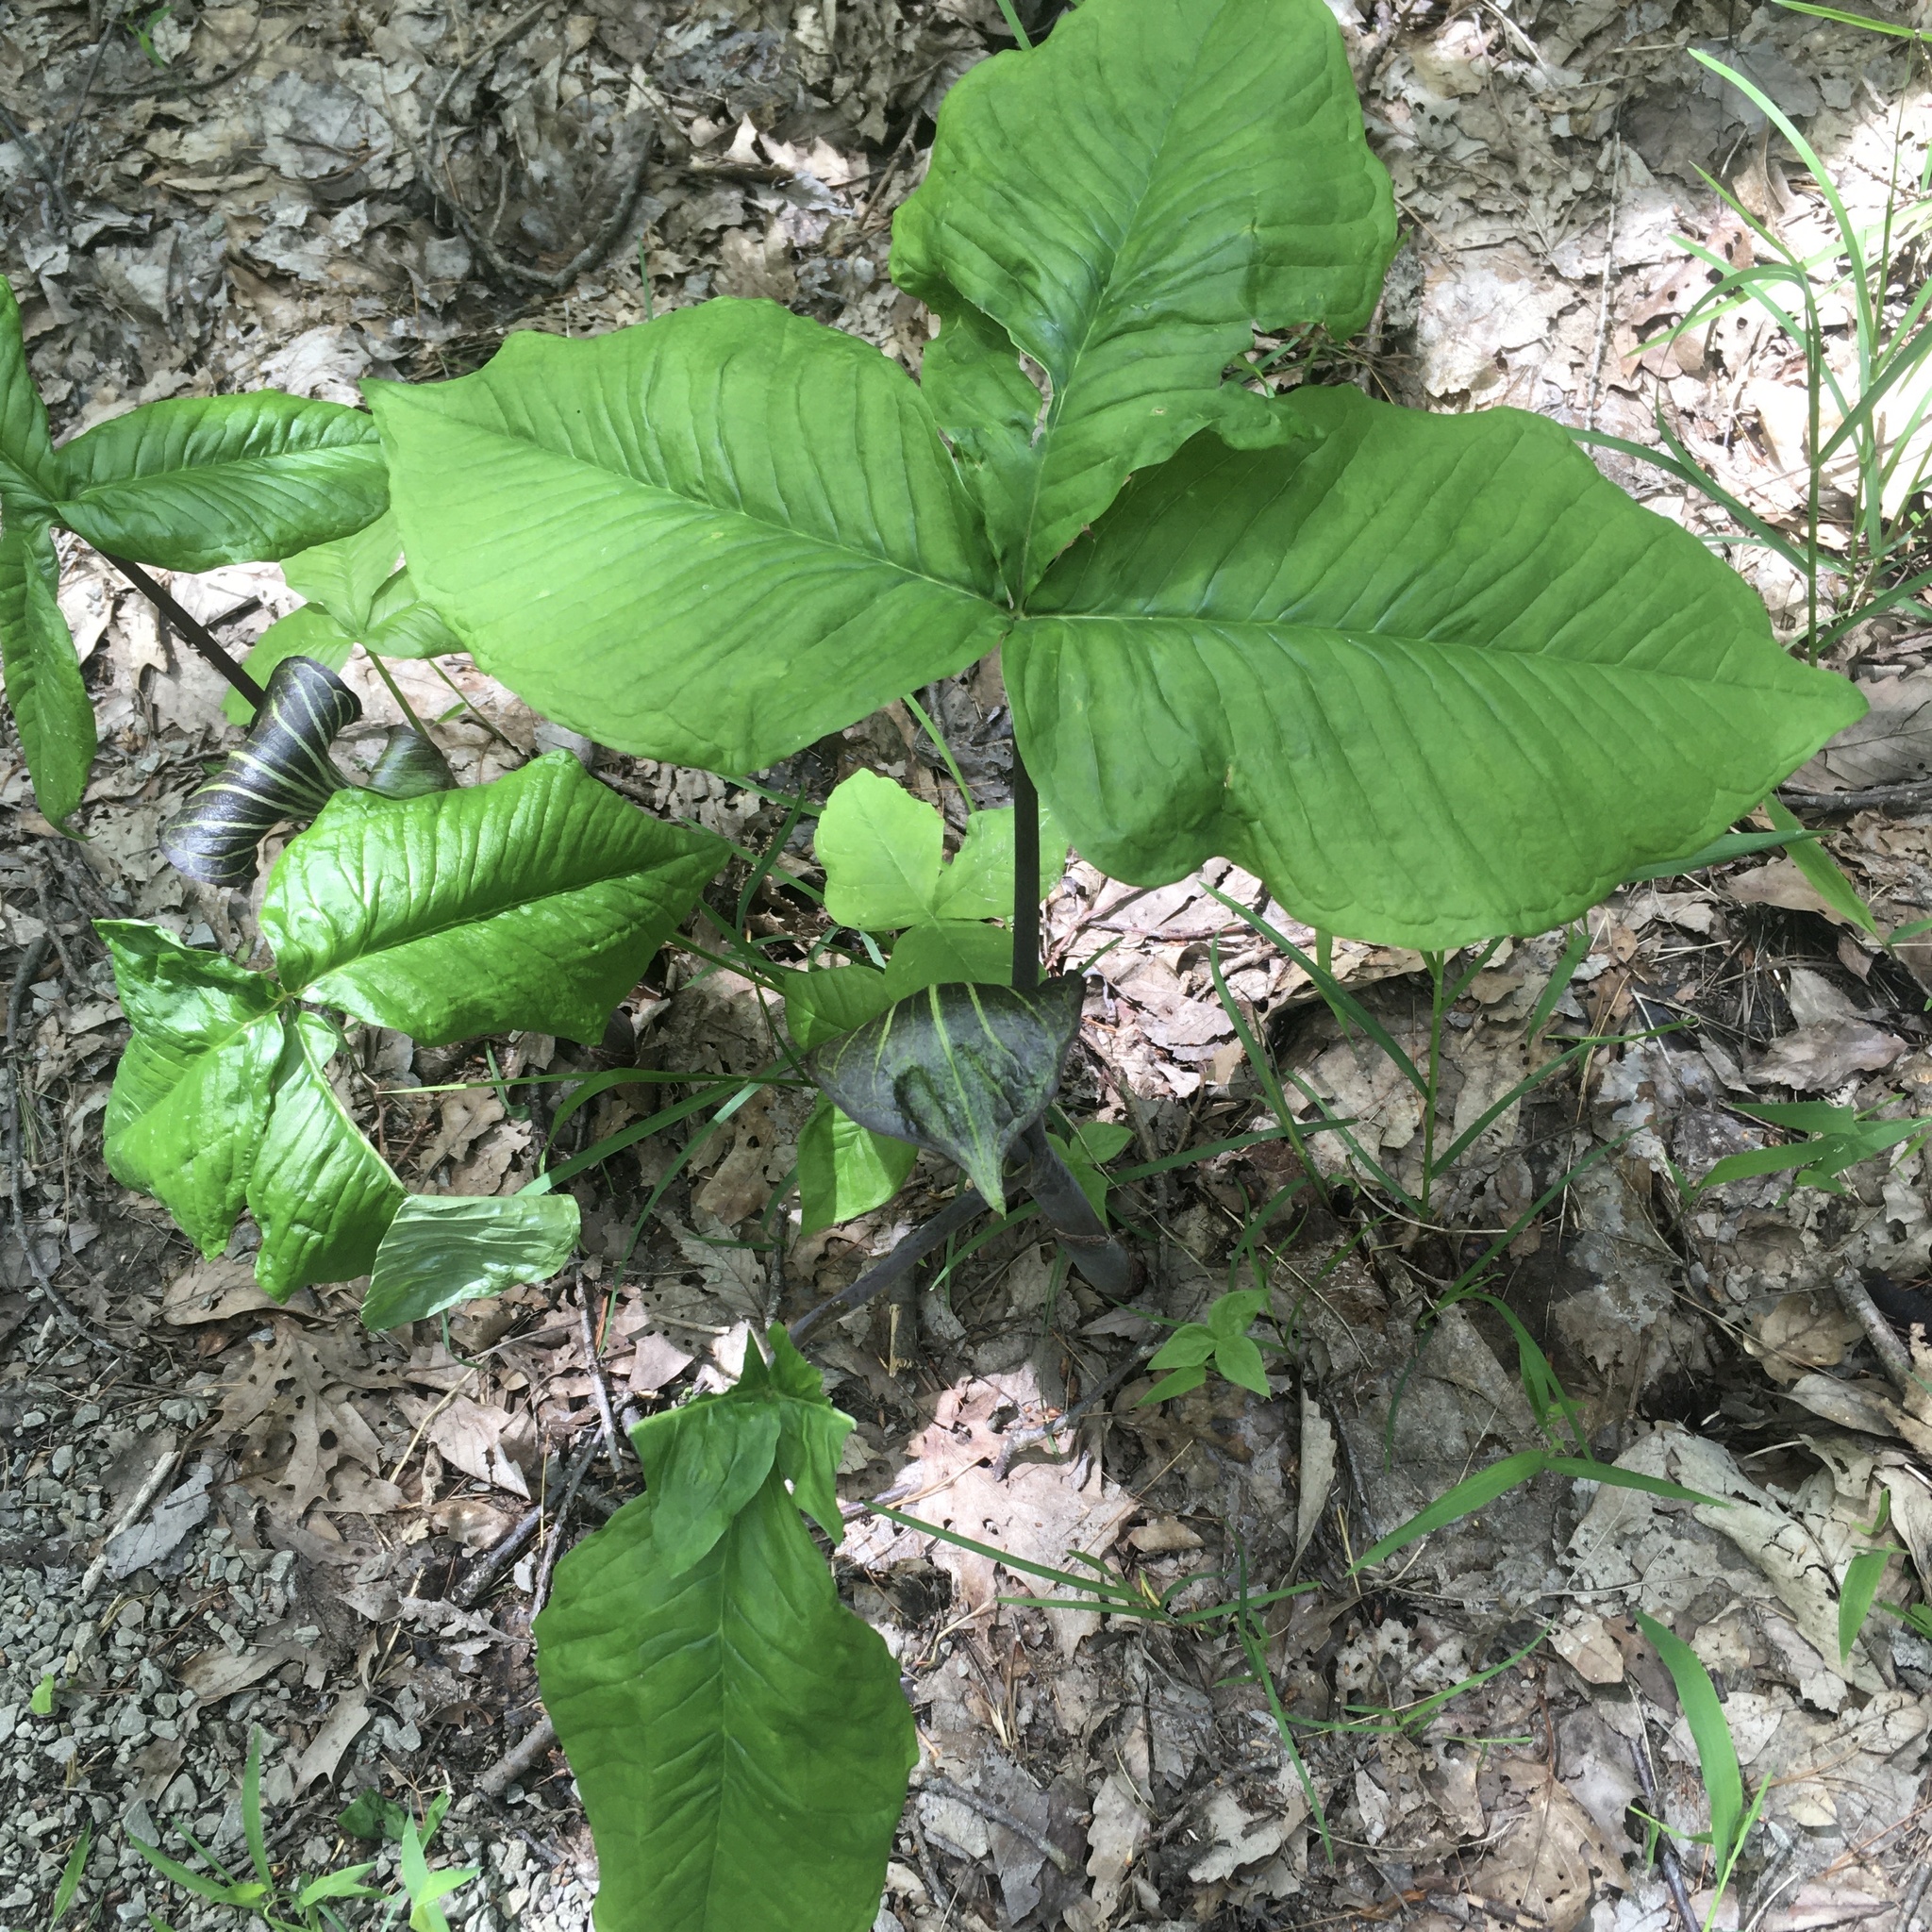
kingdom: Plantae
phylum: Tracheophyta
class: Liliopsida
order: Alismatales
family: Araceae
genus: Arisaema
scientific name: Arisaema triphyllum
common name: Jack-in-the-pulpit
